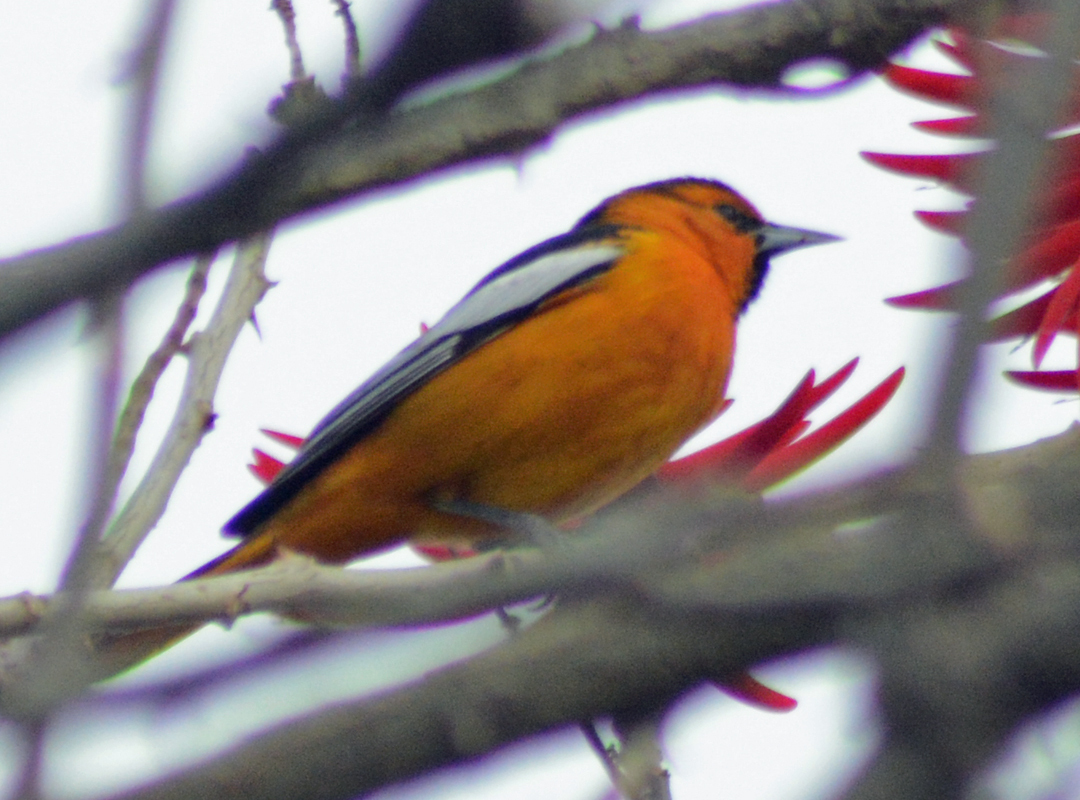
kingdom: Animalia
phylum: Chordata
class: Aves
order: Passeriformes
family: Icteridae
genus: Icterus
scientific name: Icterus bullockii
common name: Bullock's oriole
